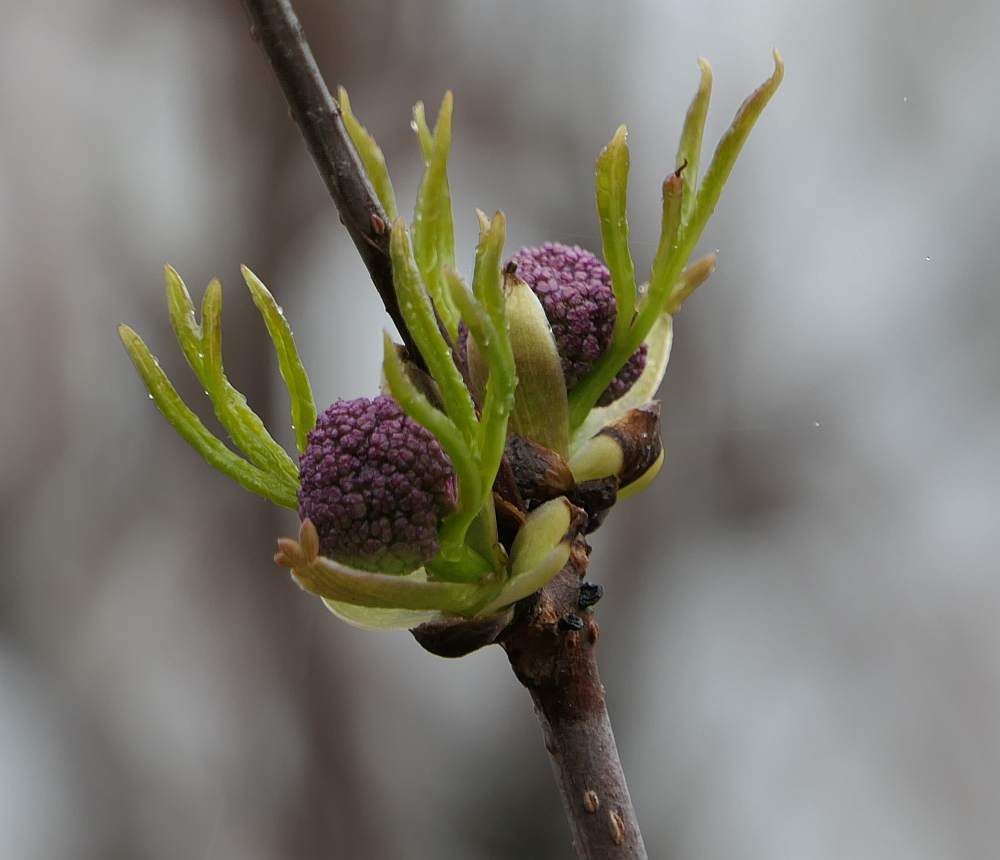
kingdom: Plantae
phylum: Tracheophyta
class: Magnoliopsida
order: Dipsacales
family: Viburnaceae
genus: Sambucus
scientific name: Sambucus racemosa
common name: Red-berried elder
